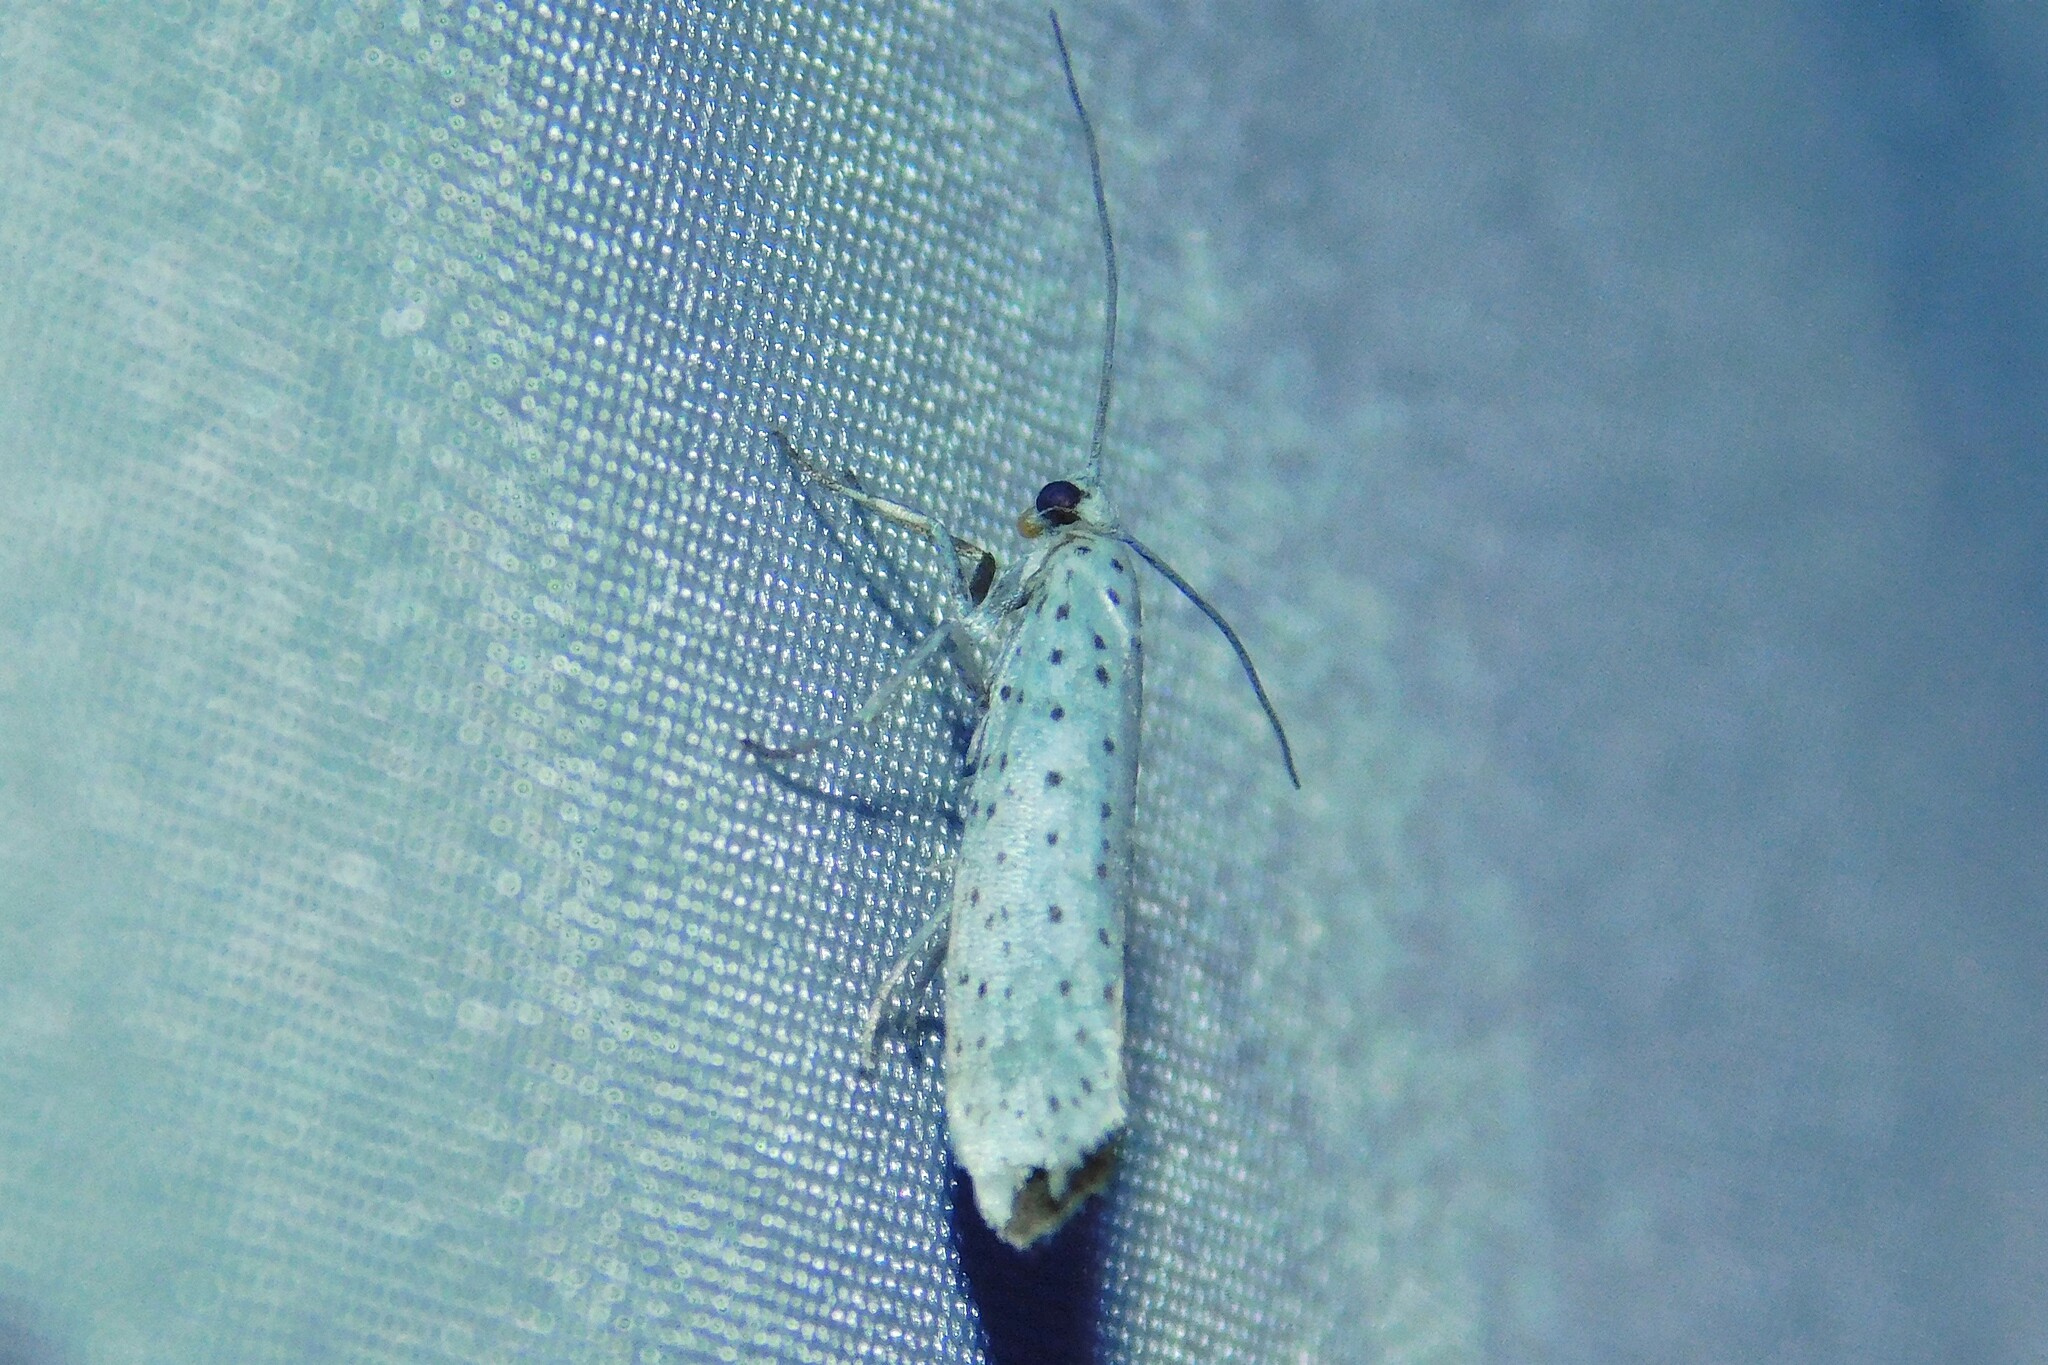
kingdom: Animalia
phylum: Arthropoda
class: Insecta
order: Lepidoptera
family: Yponomeutidae
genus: Yponomeuta
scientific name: Yponomeuta evonymella
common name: Bird-cherry ermine
